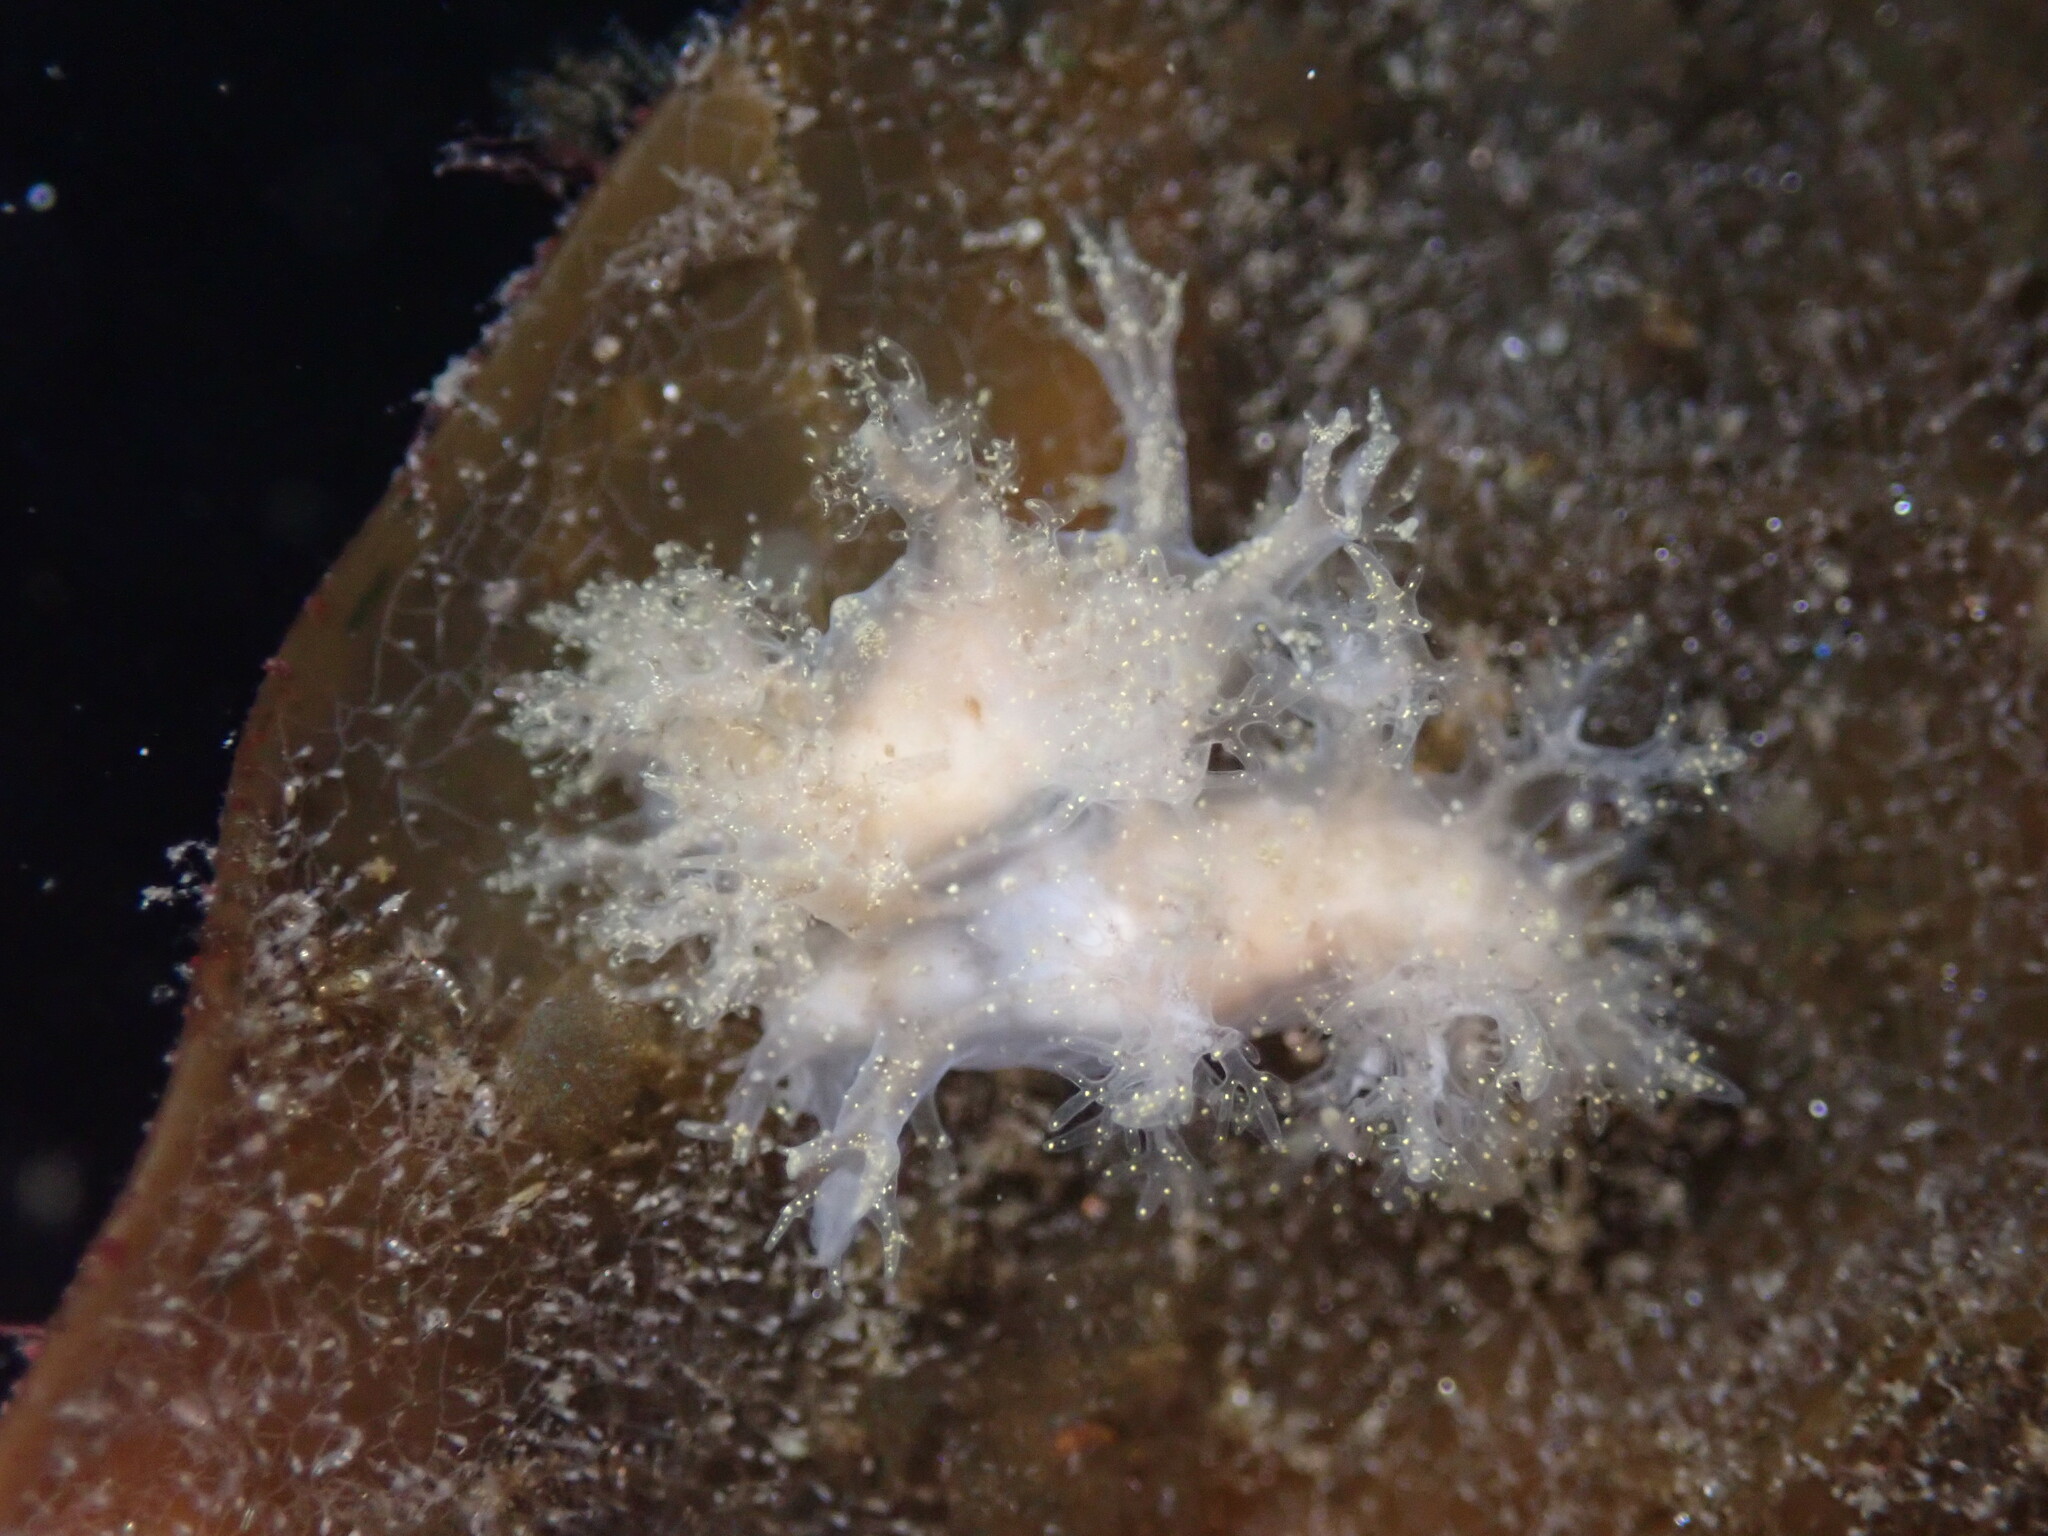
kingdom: Animalia
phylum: Mollusca
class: Gastropoda
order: Nudibranchia
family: Dendronotidae
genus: Dendronotus
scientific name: Dendronotus venustus
